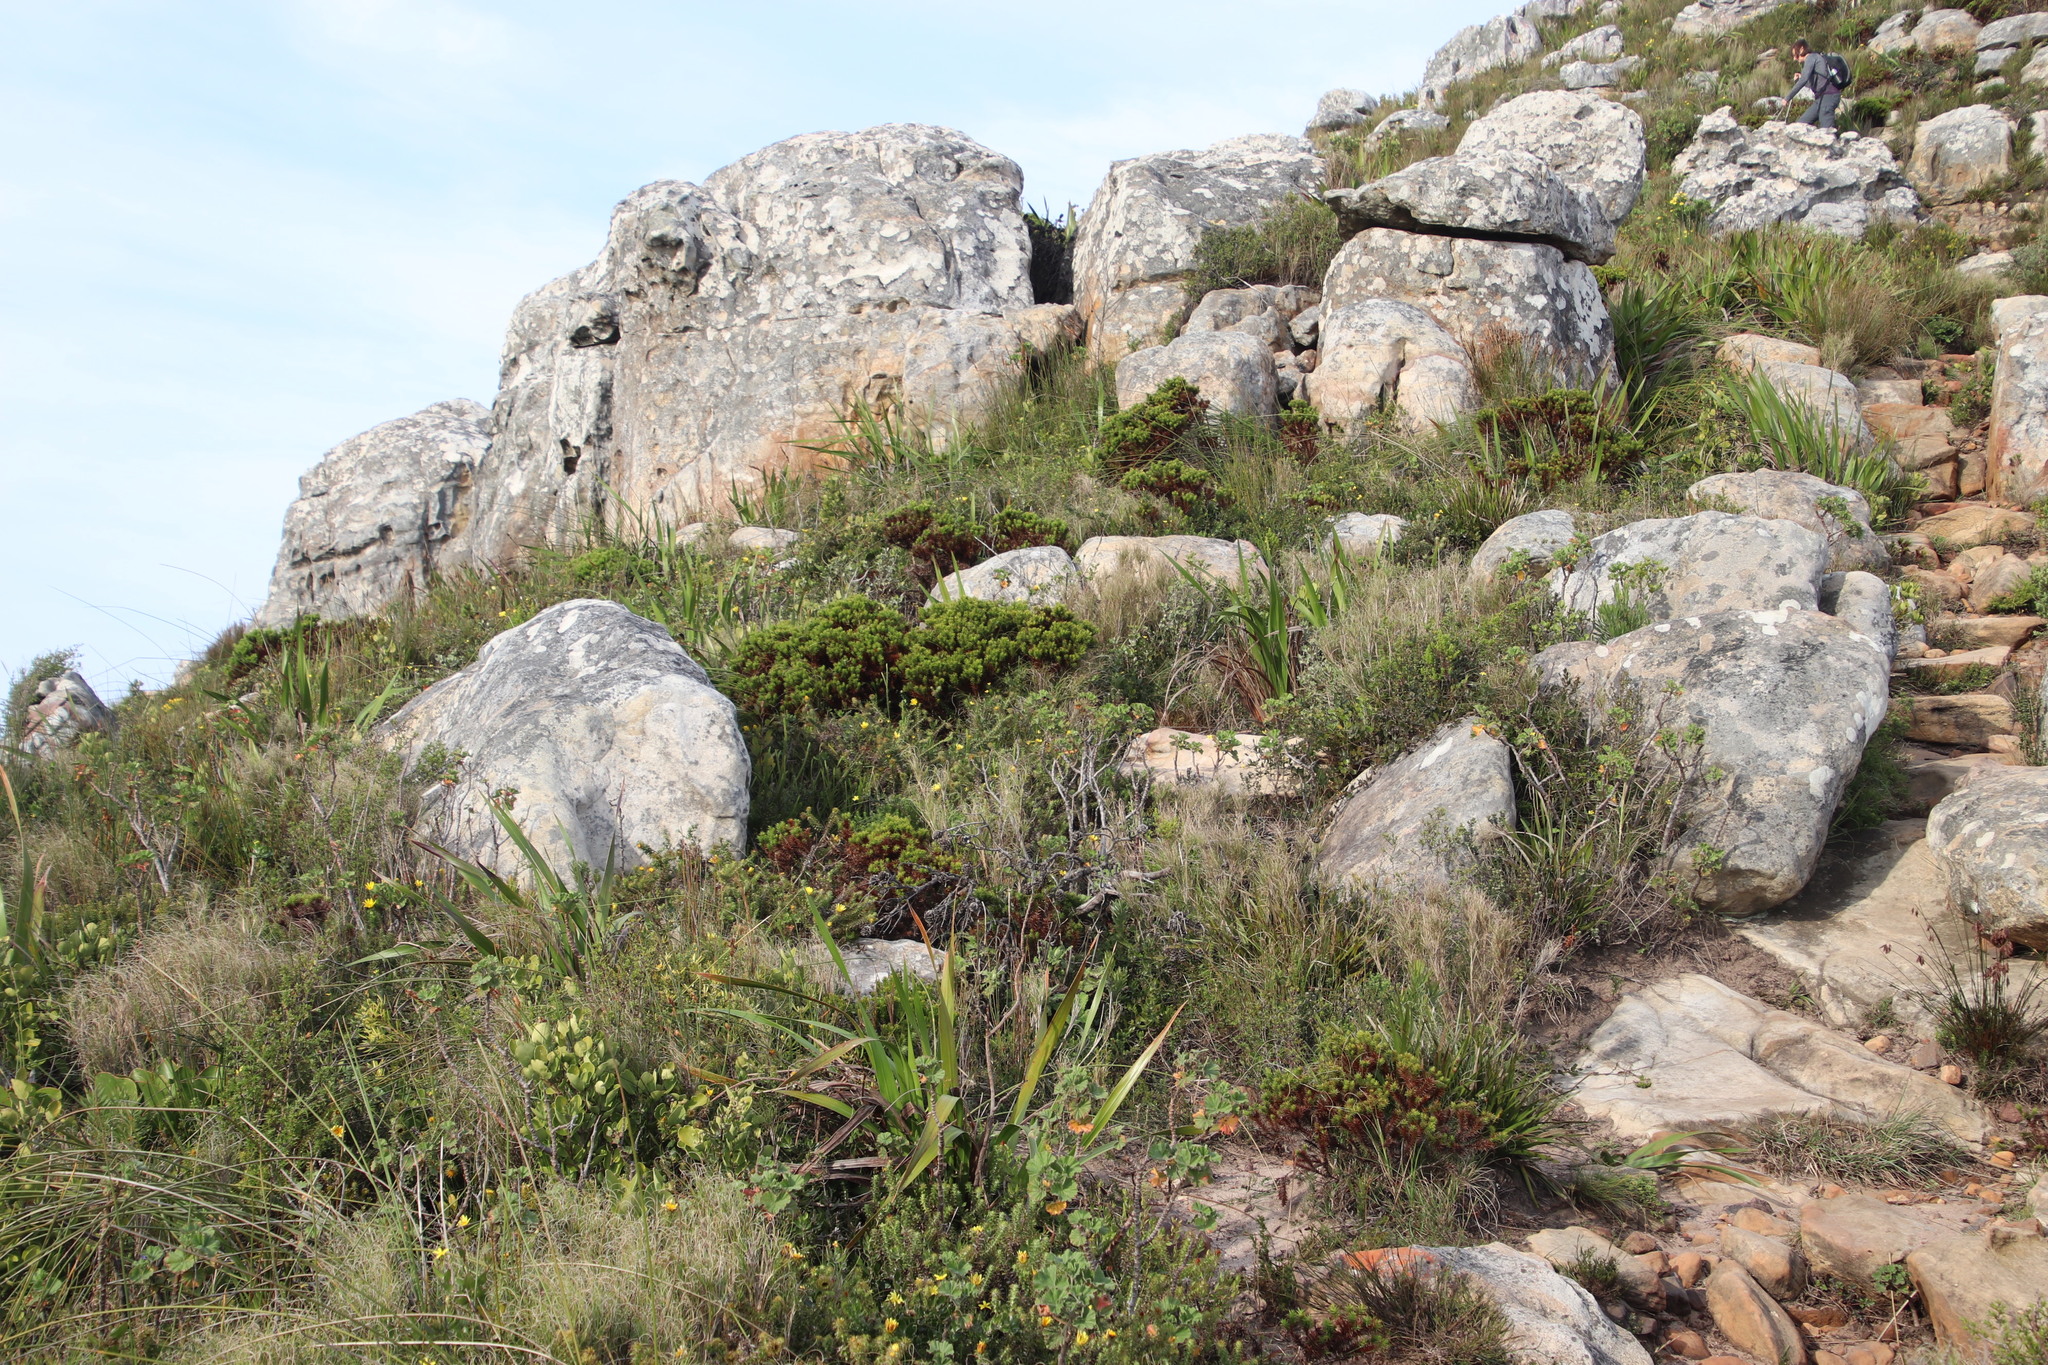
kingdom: Plantae
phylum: Tracheophyta
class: Magnoliopsida
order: Fabales
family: Fabaceae
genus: Aspalathus
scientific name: Aspalathus barbata
